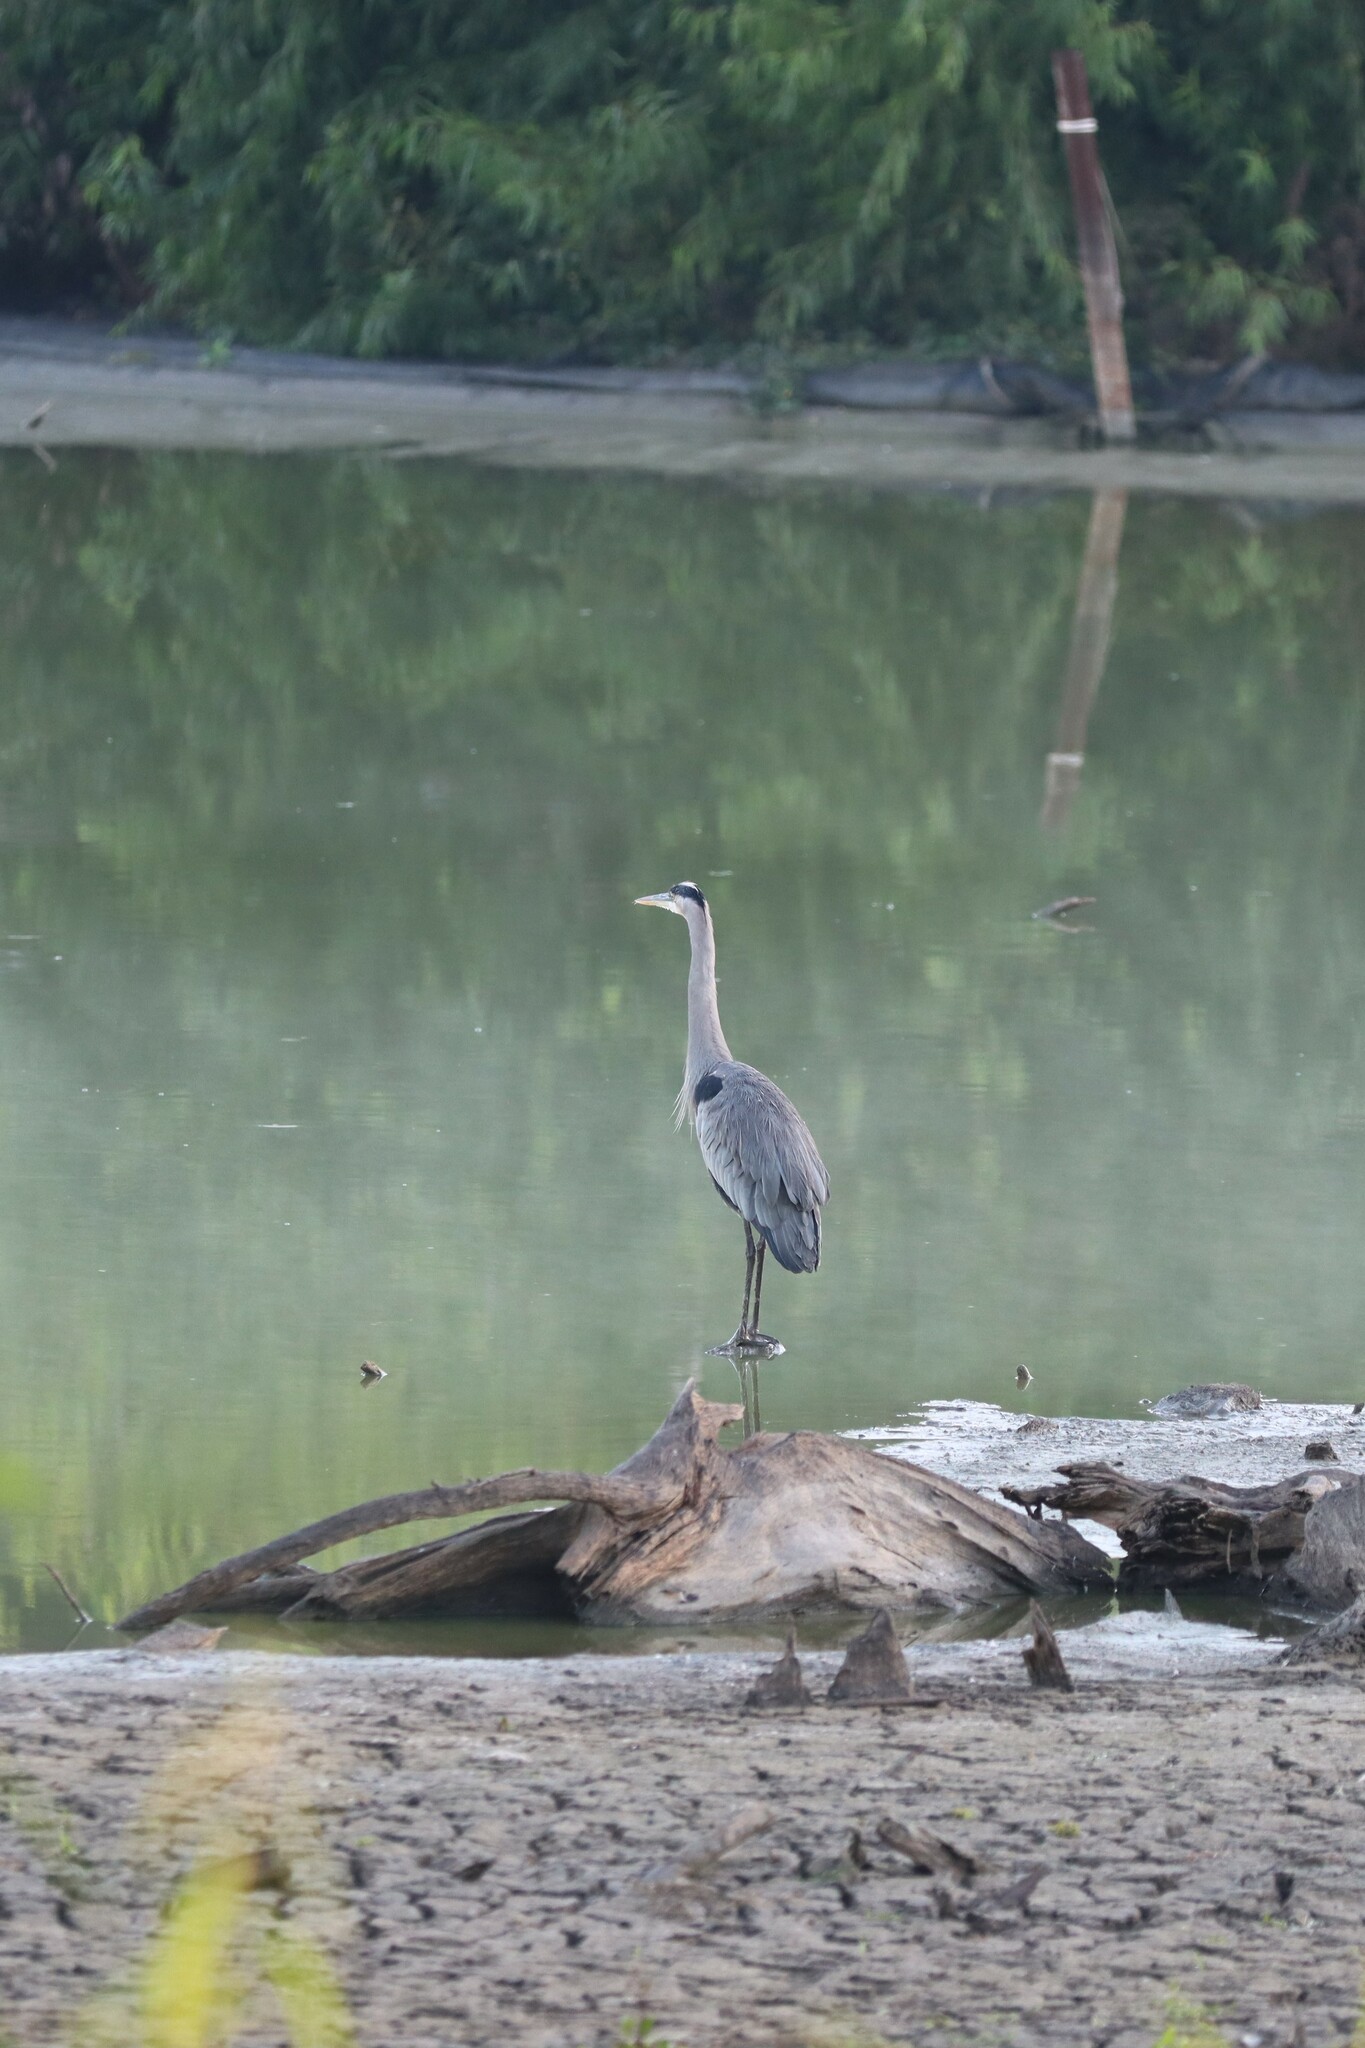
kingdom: Animalia
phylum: Chordata
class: Aves
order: Pelecaniformes
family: Ardeidae
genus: Ardea
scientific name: Ardea herodias
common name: Great blue heron
